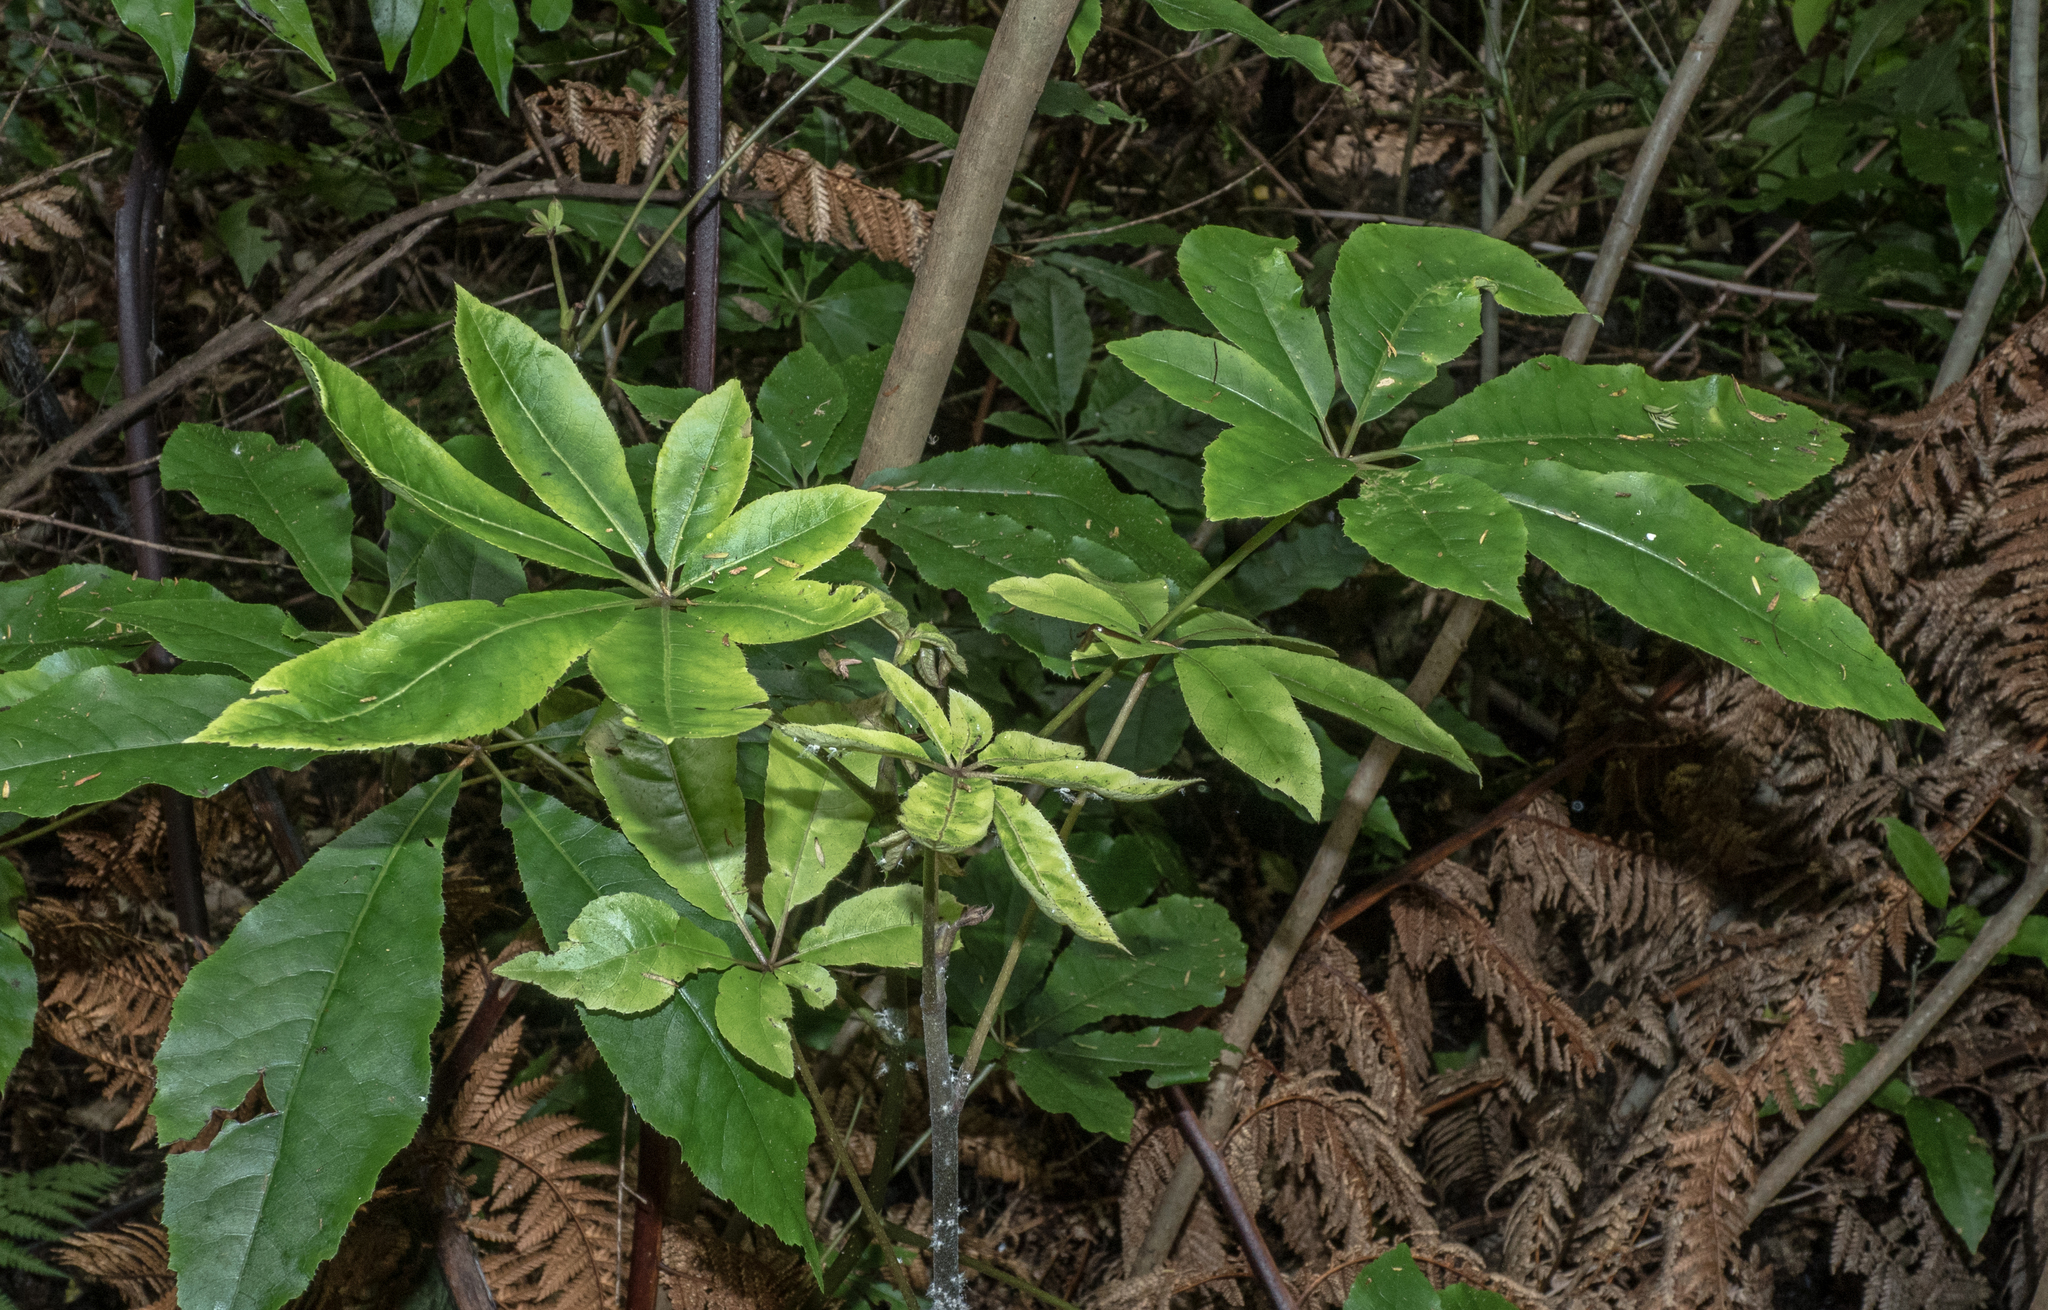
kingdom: Plantae
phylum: Tracheophyta
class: Magnoliopsida
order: Apiales
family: Araliaceae
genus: Schefflera
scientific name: Schefflera digitata
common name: Pate
